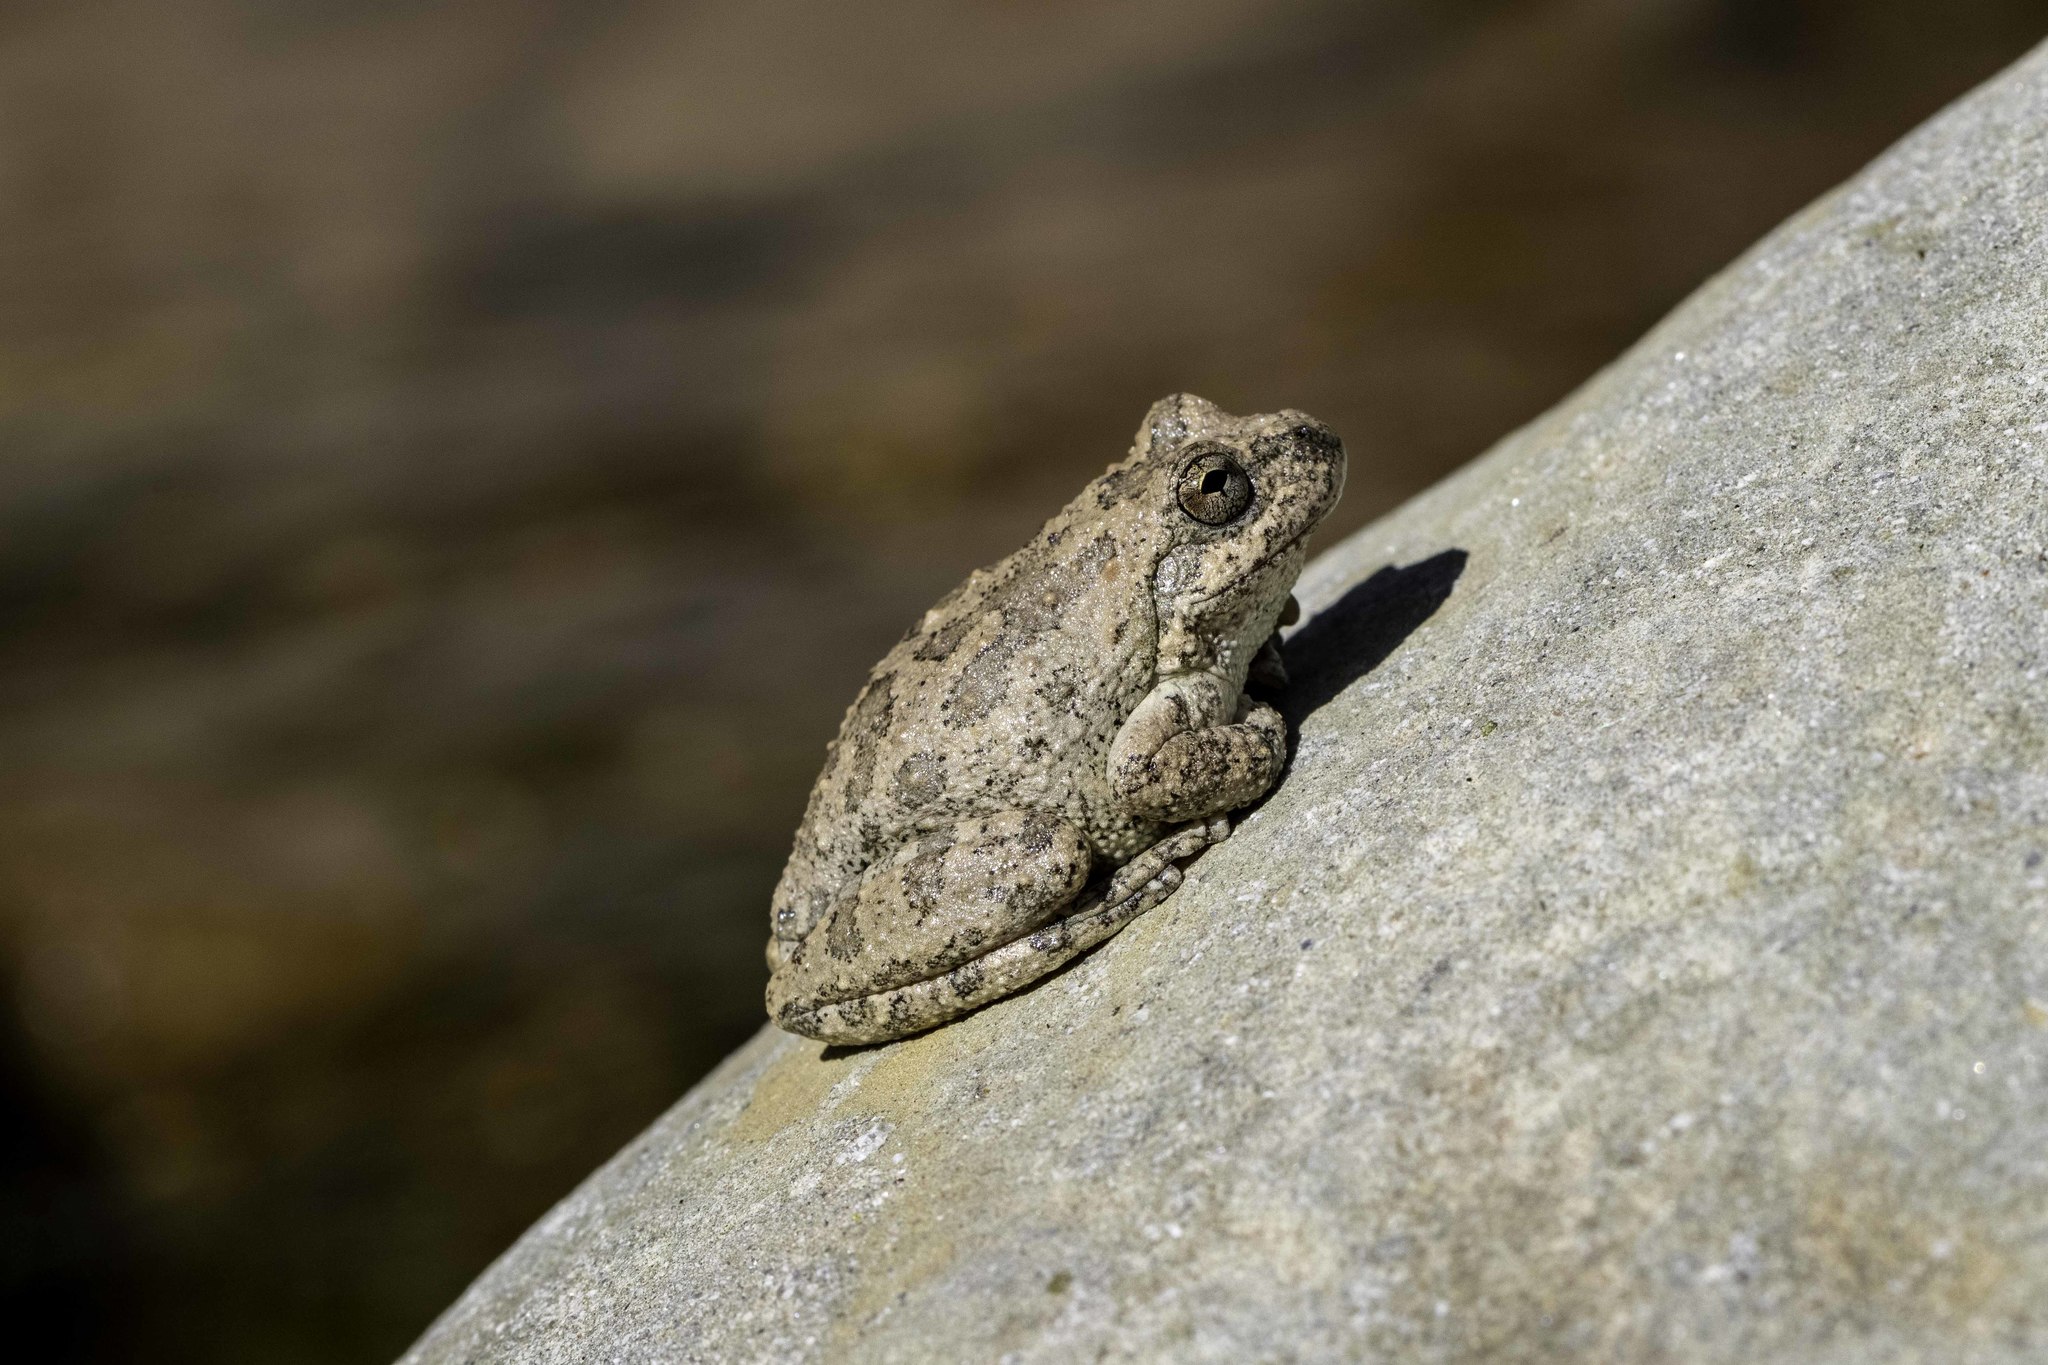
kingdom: Animalia
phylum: Chordata
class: Amphibia
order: Anura
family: Hylidae
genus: Pseudacris
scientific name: Pseudacris cadaverina
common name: California chorus frog
